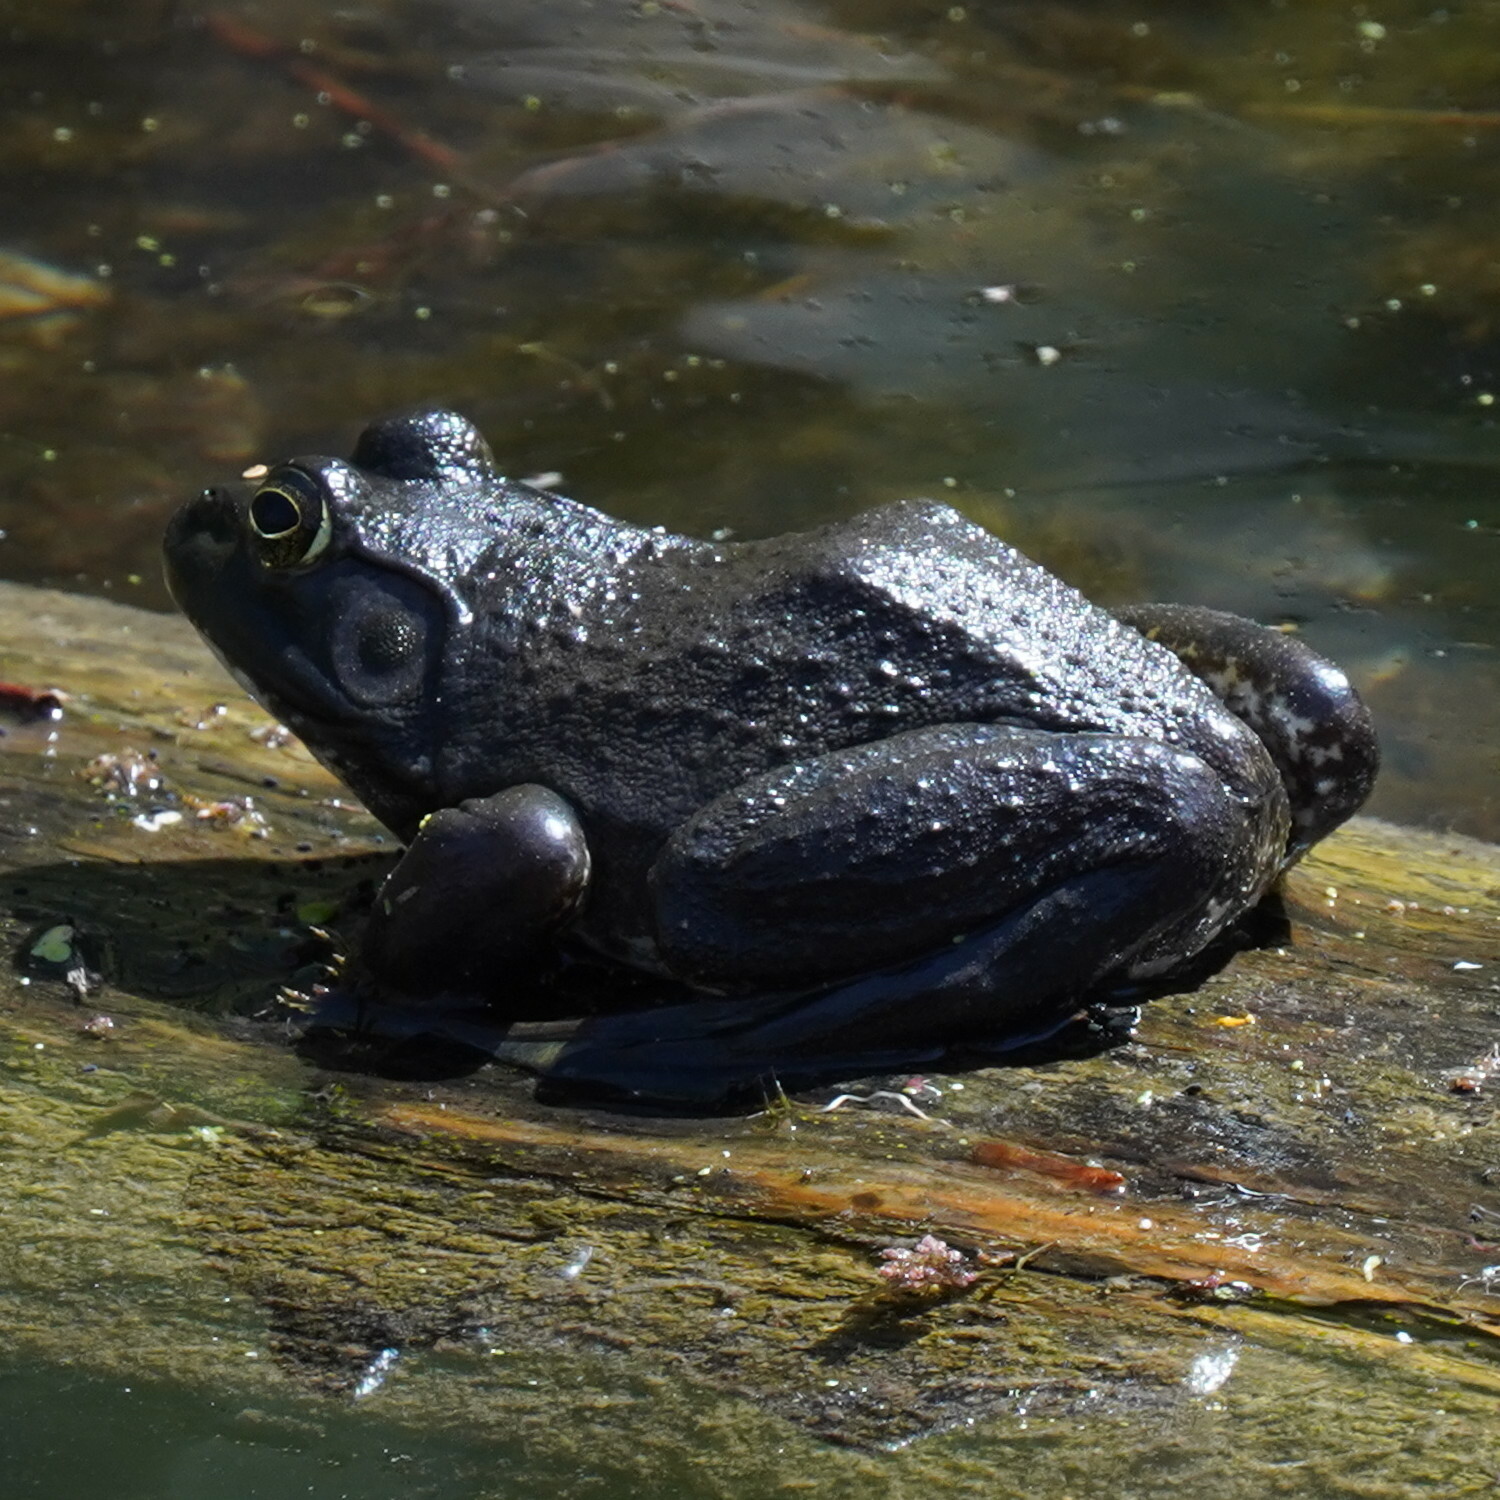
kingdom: Animalia
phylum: Chordata
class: Amphibia
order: Anura
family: Ranidae
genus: Lithobates
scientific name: Lithobates catesbeianus
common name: American bullfrog
